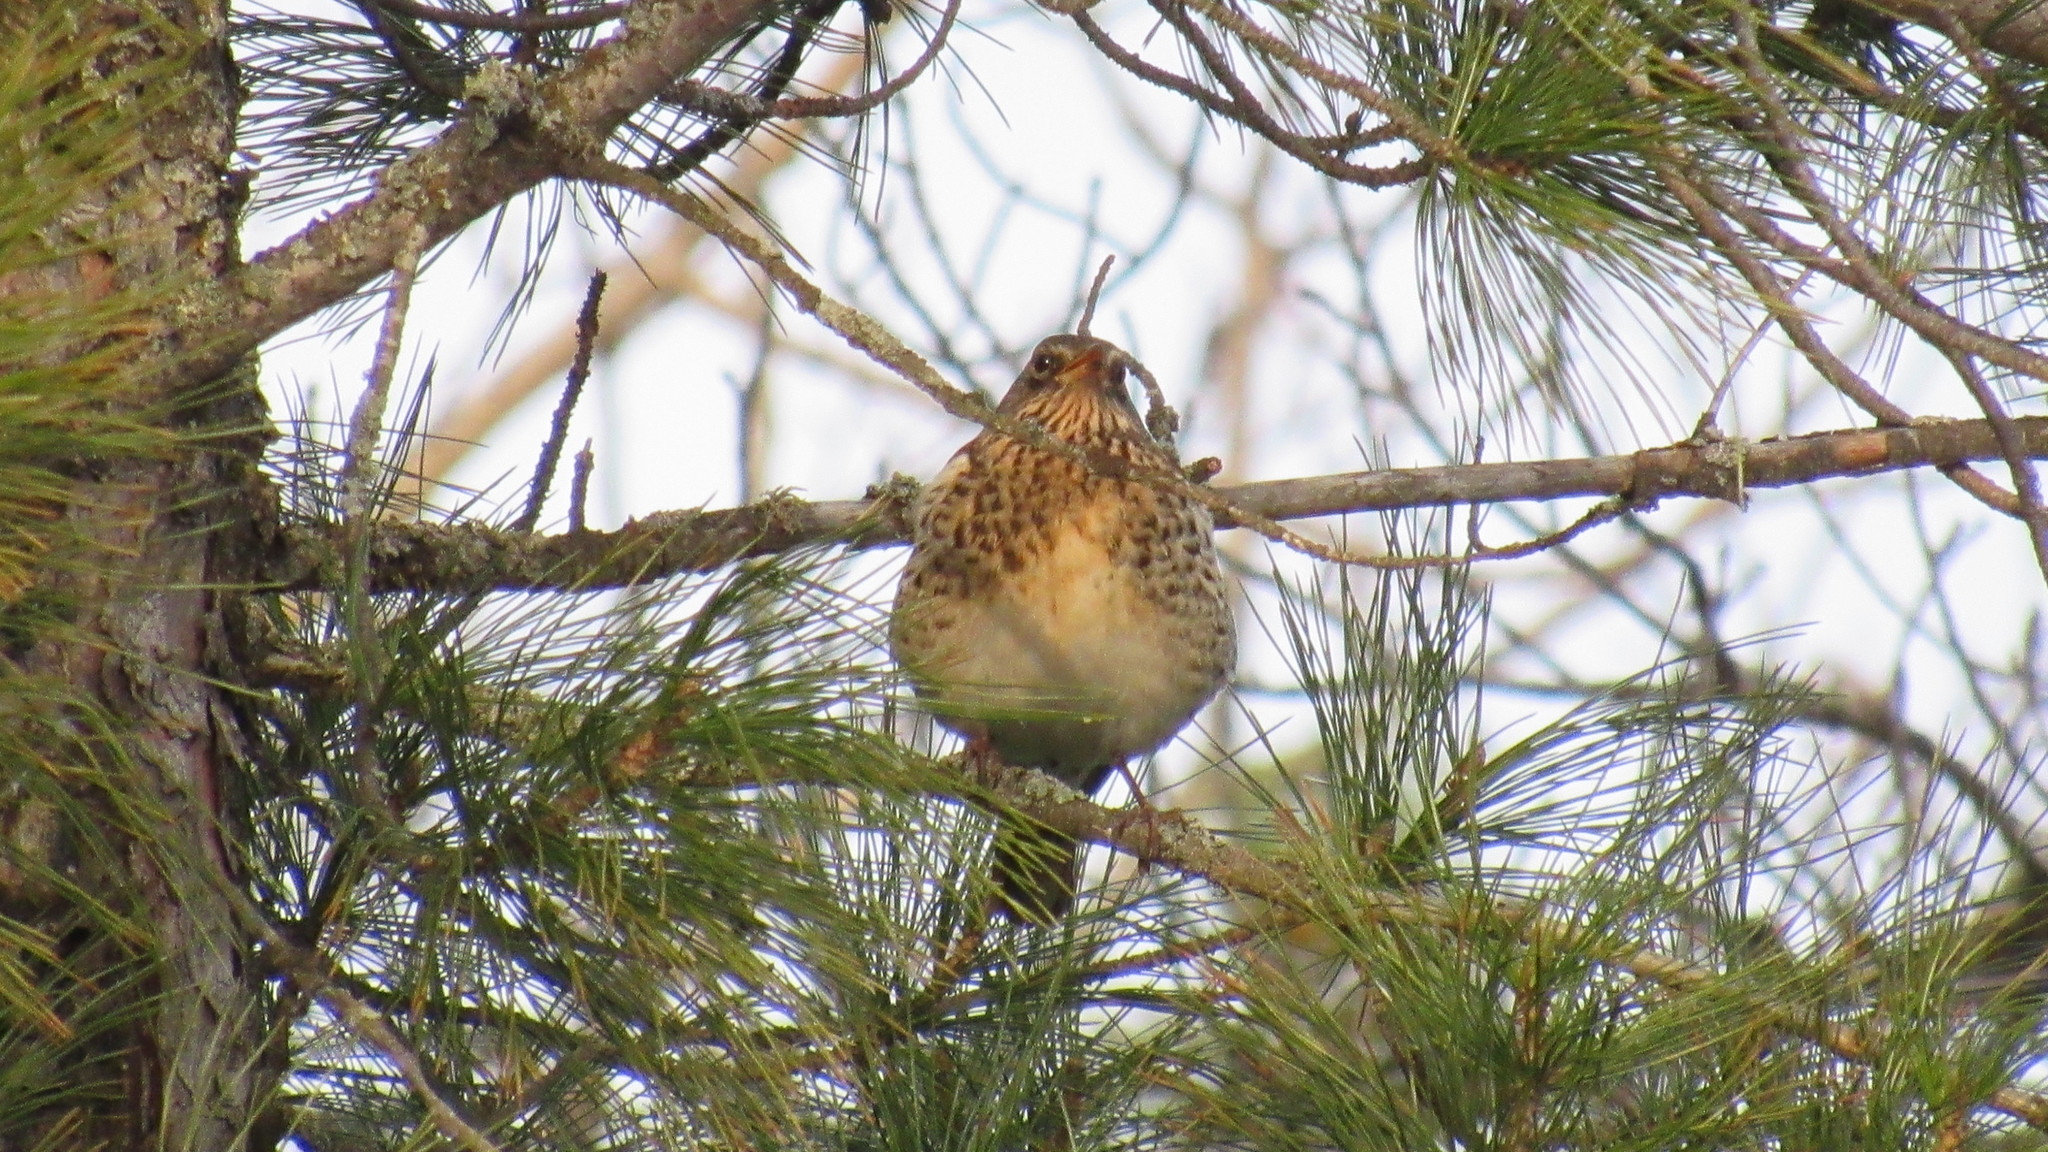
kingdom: Animalia
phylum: Chordata
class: Aves
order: Passeriformes
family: Turdidae
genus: Turdus
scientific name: Turdus pilaris
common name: Fieldfare
